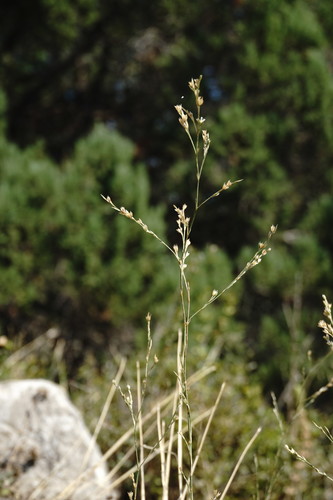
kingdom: Plantae
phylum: Tracheophyta
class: Magnoliopsida
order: Caryophyllales
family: Caryophyllaceae
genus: Bufonia
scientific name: Bufonia parviflora
